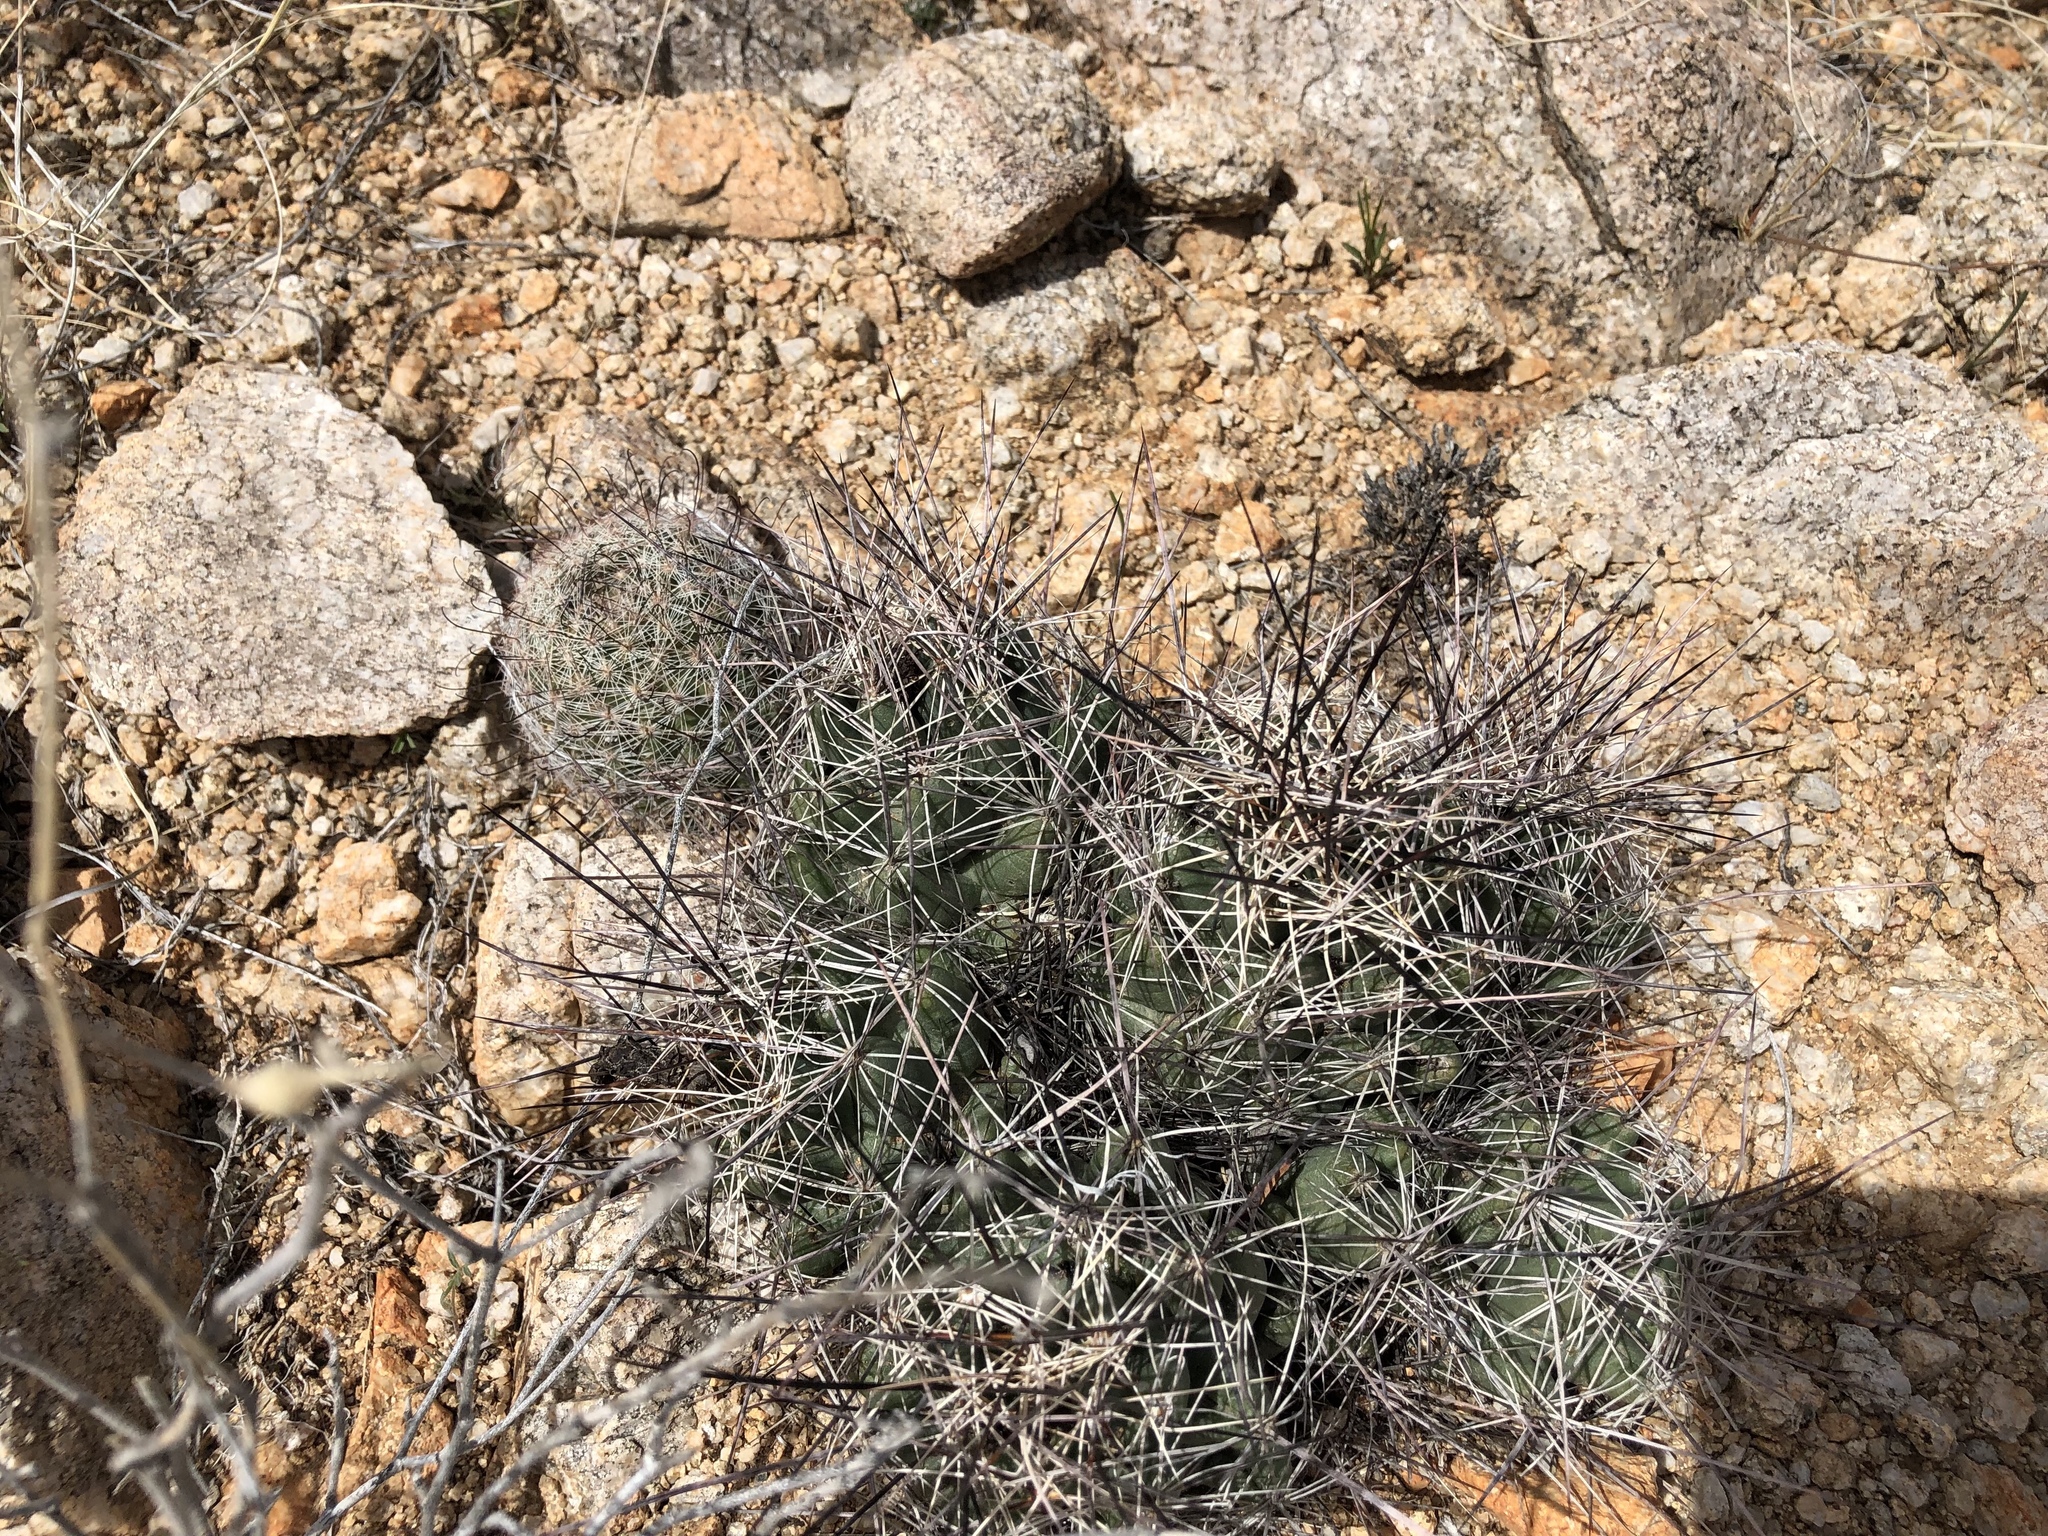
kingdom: Plantae
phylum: Tracheophyta
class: Magnoliopsida
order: Caryophyllales
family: Cactaceae
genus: Coryphantha
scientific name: Coryphantha macromeris
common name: Nipple beehive cactus
